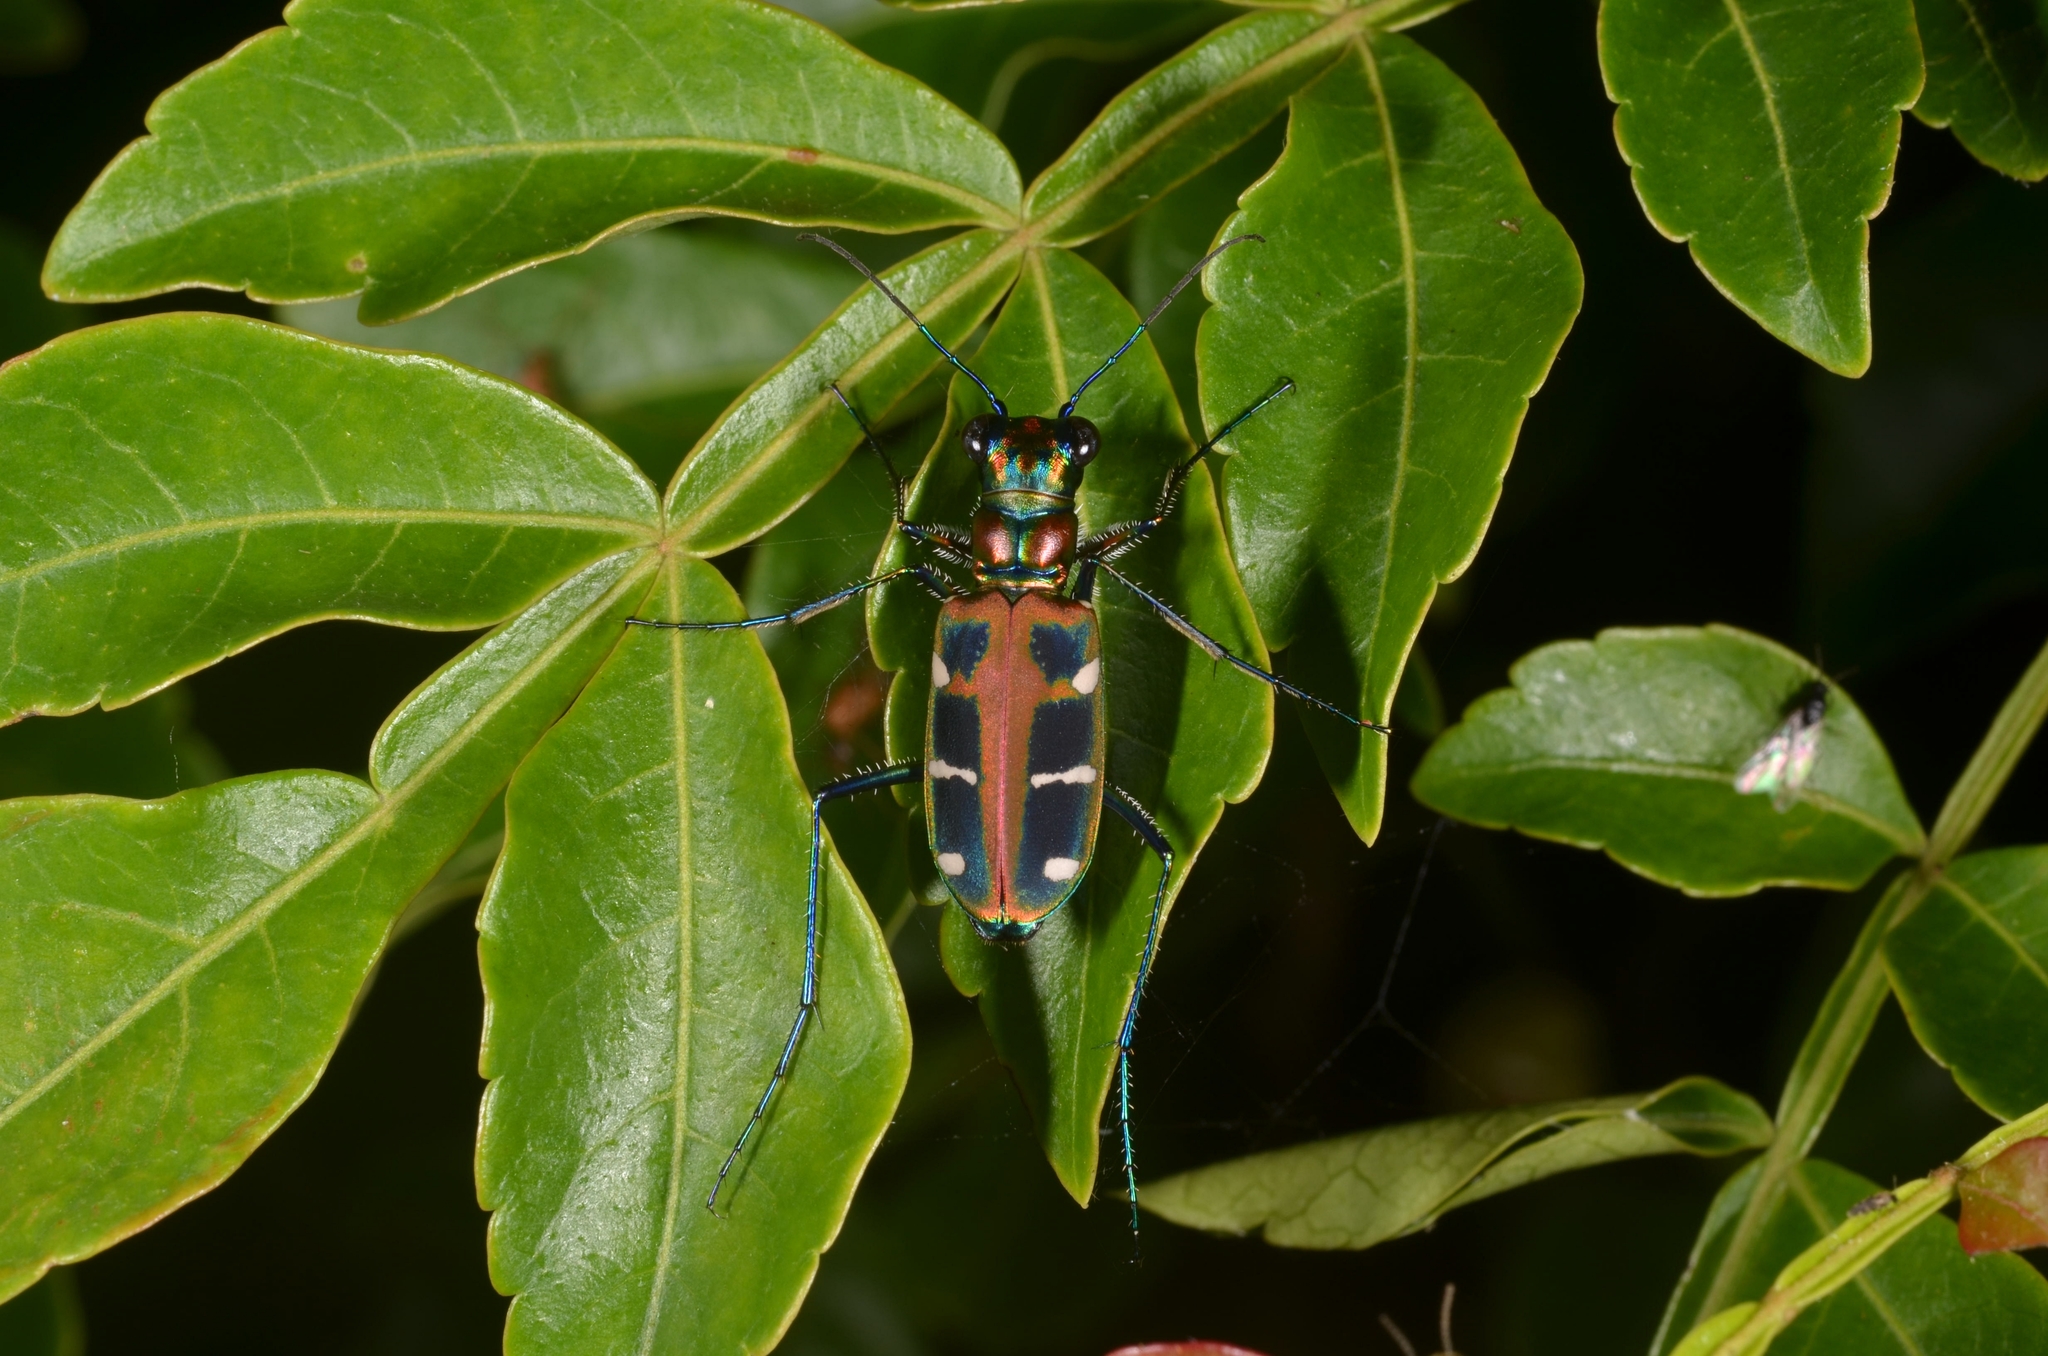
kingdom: Animalia
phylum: Arthropoda
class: Insecta
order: Coleoptera
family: Carabidae
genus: Cicindela
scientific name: Cicindela duponti
